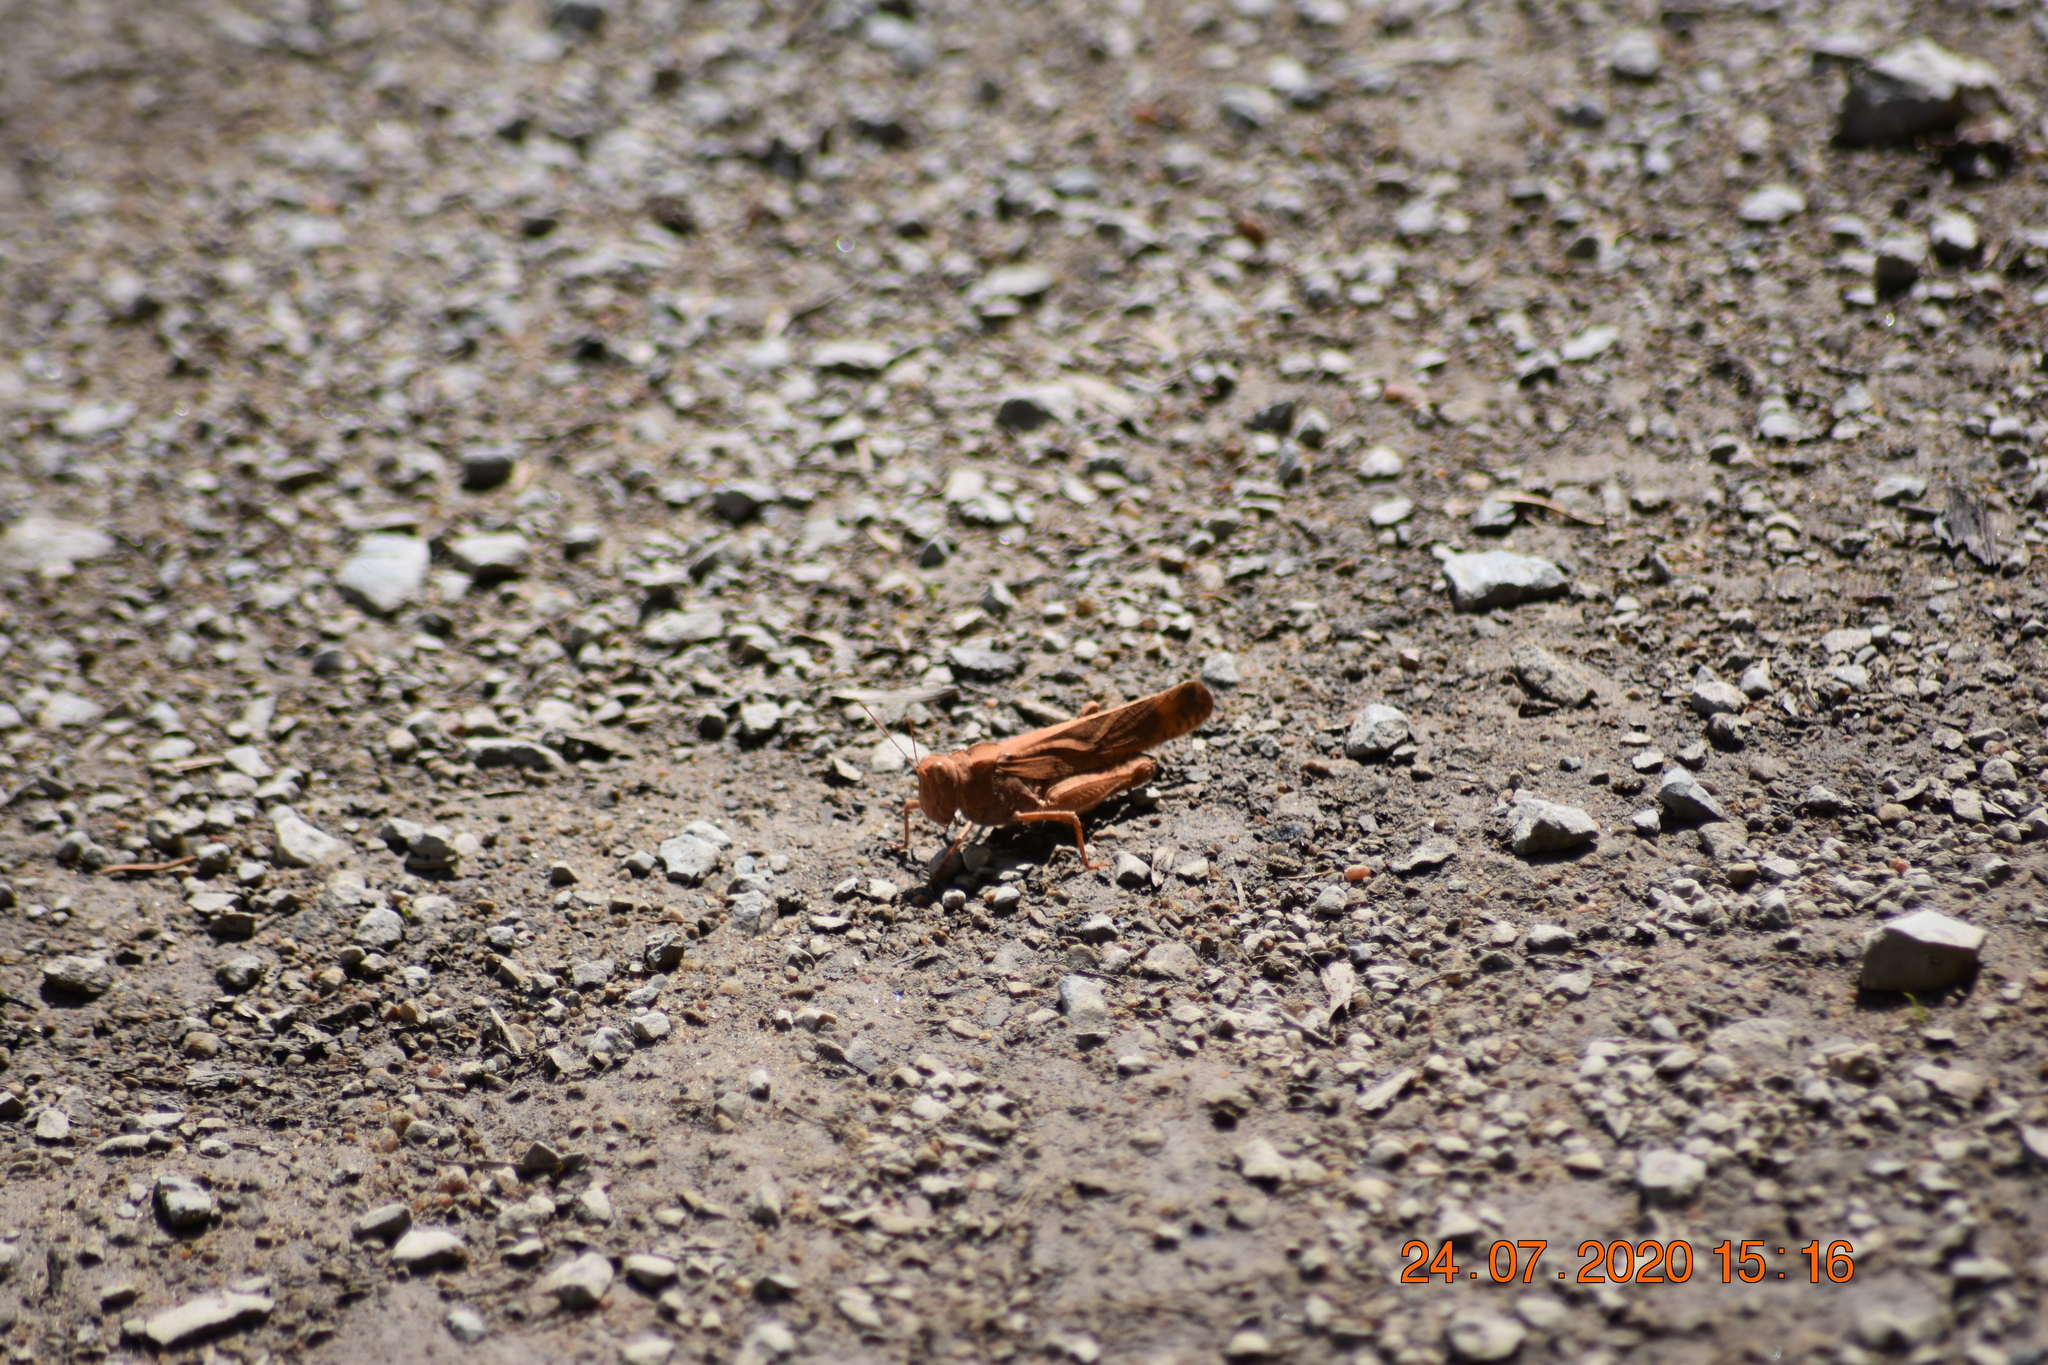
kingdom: Animalia
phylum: Arthropoda
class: Insecta
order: Orthoptera
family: Acrididae
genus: Dissosteira
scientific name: Dissosteira carolina
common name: Carolina grasshopper
